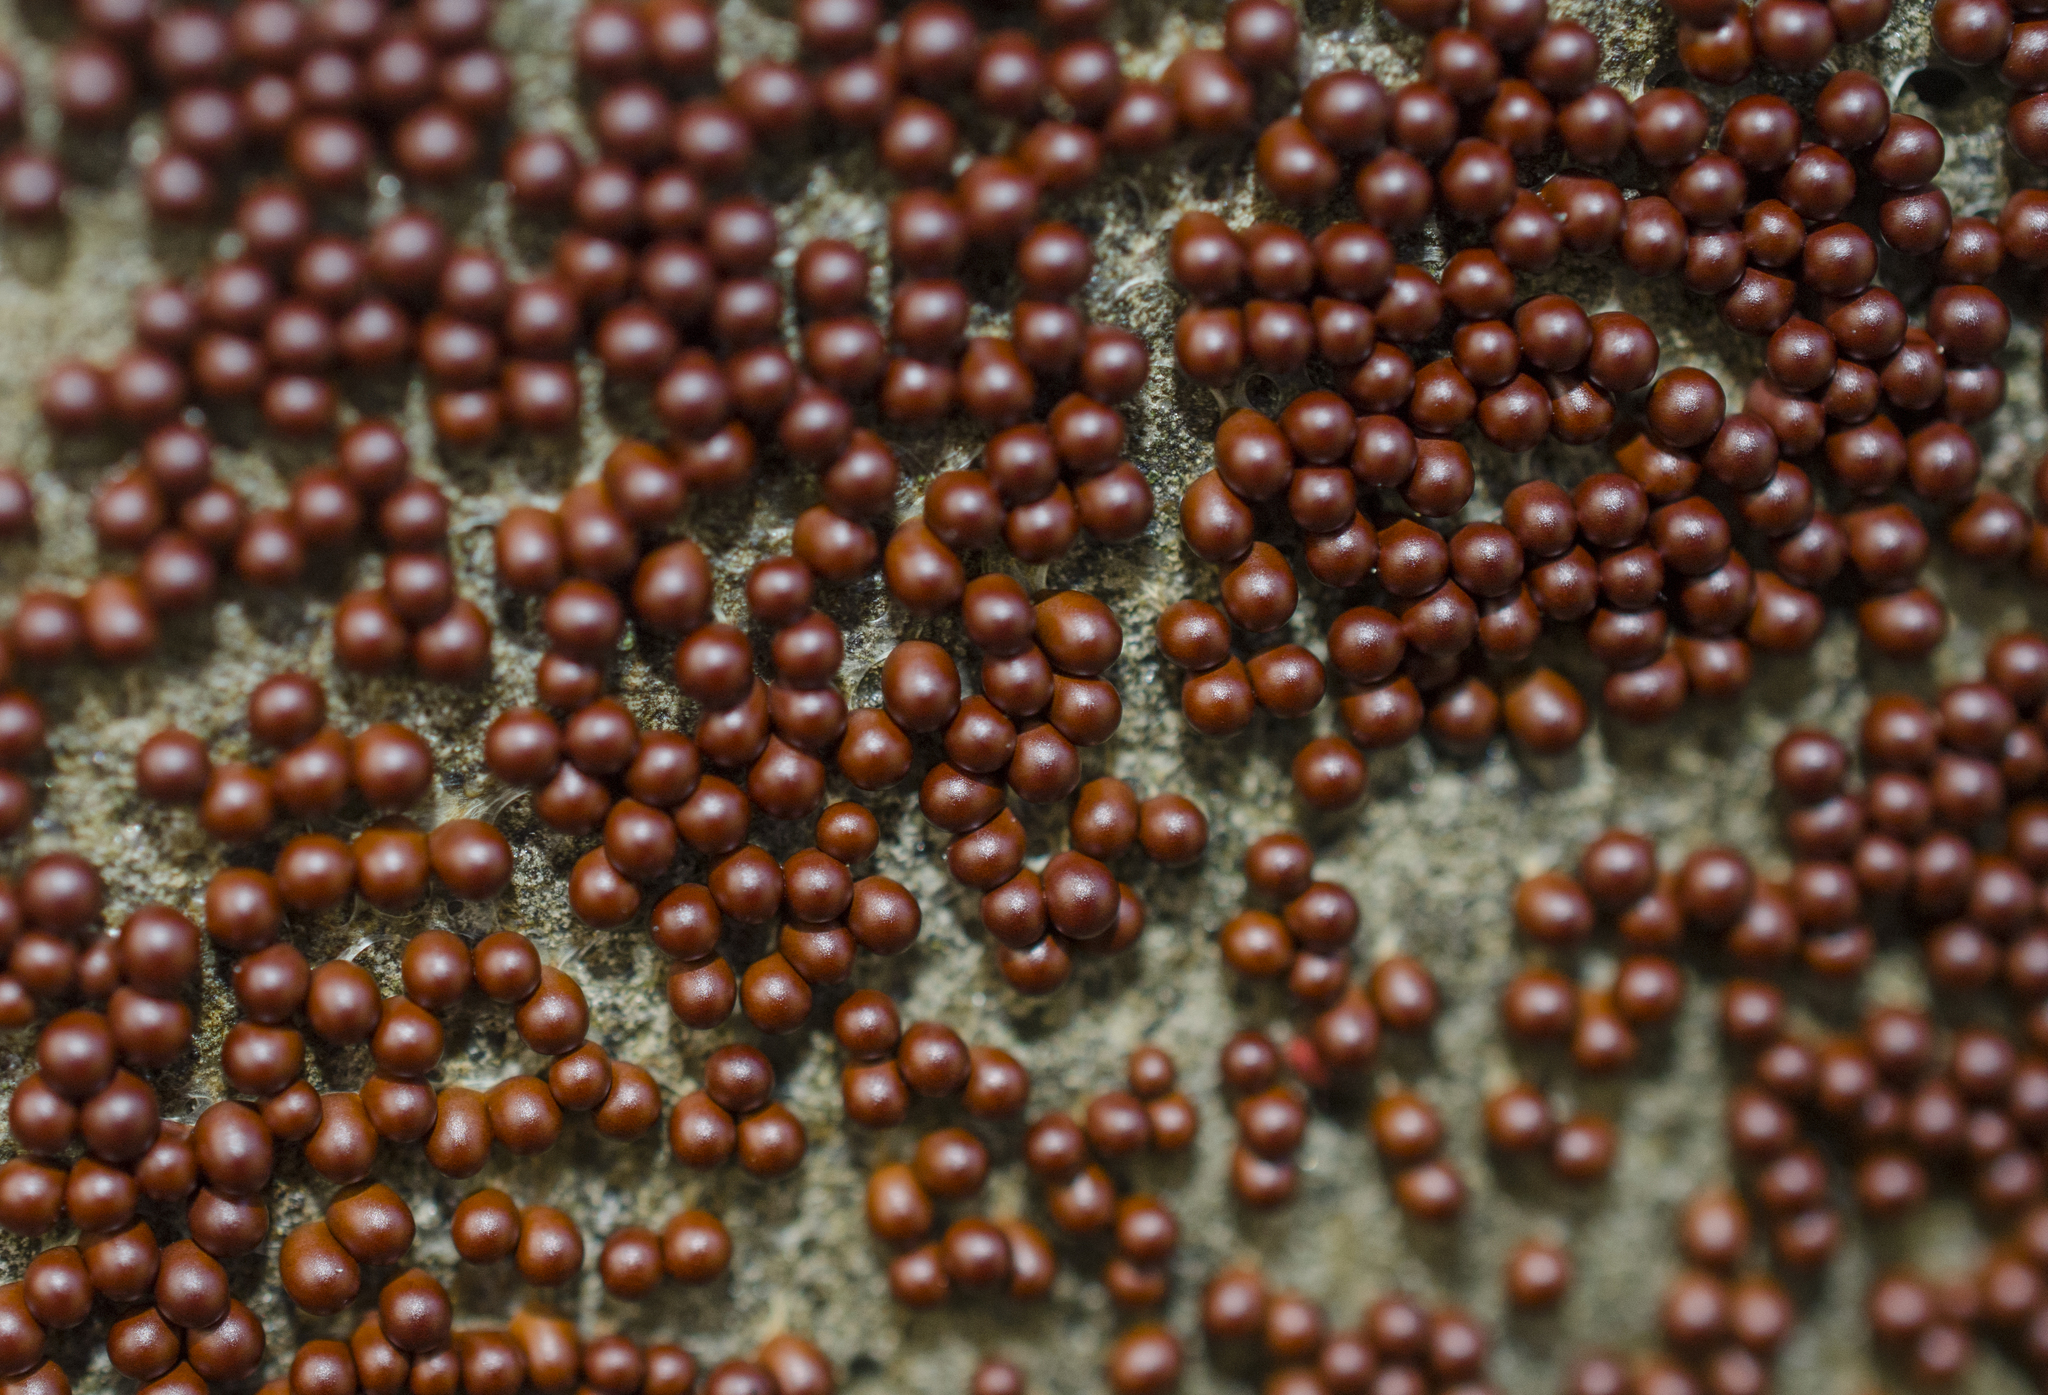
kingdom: Protozoa
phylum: Mycetozoa
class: Myxomycetes
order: Physarales
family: Physaraceae
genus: Leocarpus
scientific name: Leocarpus fragilis
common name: Insect-egg slime
